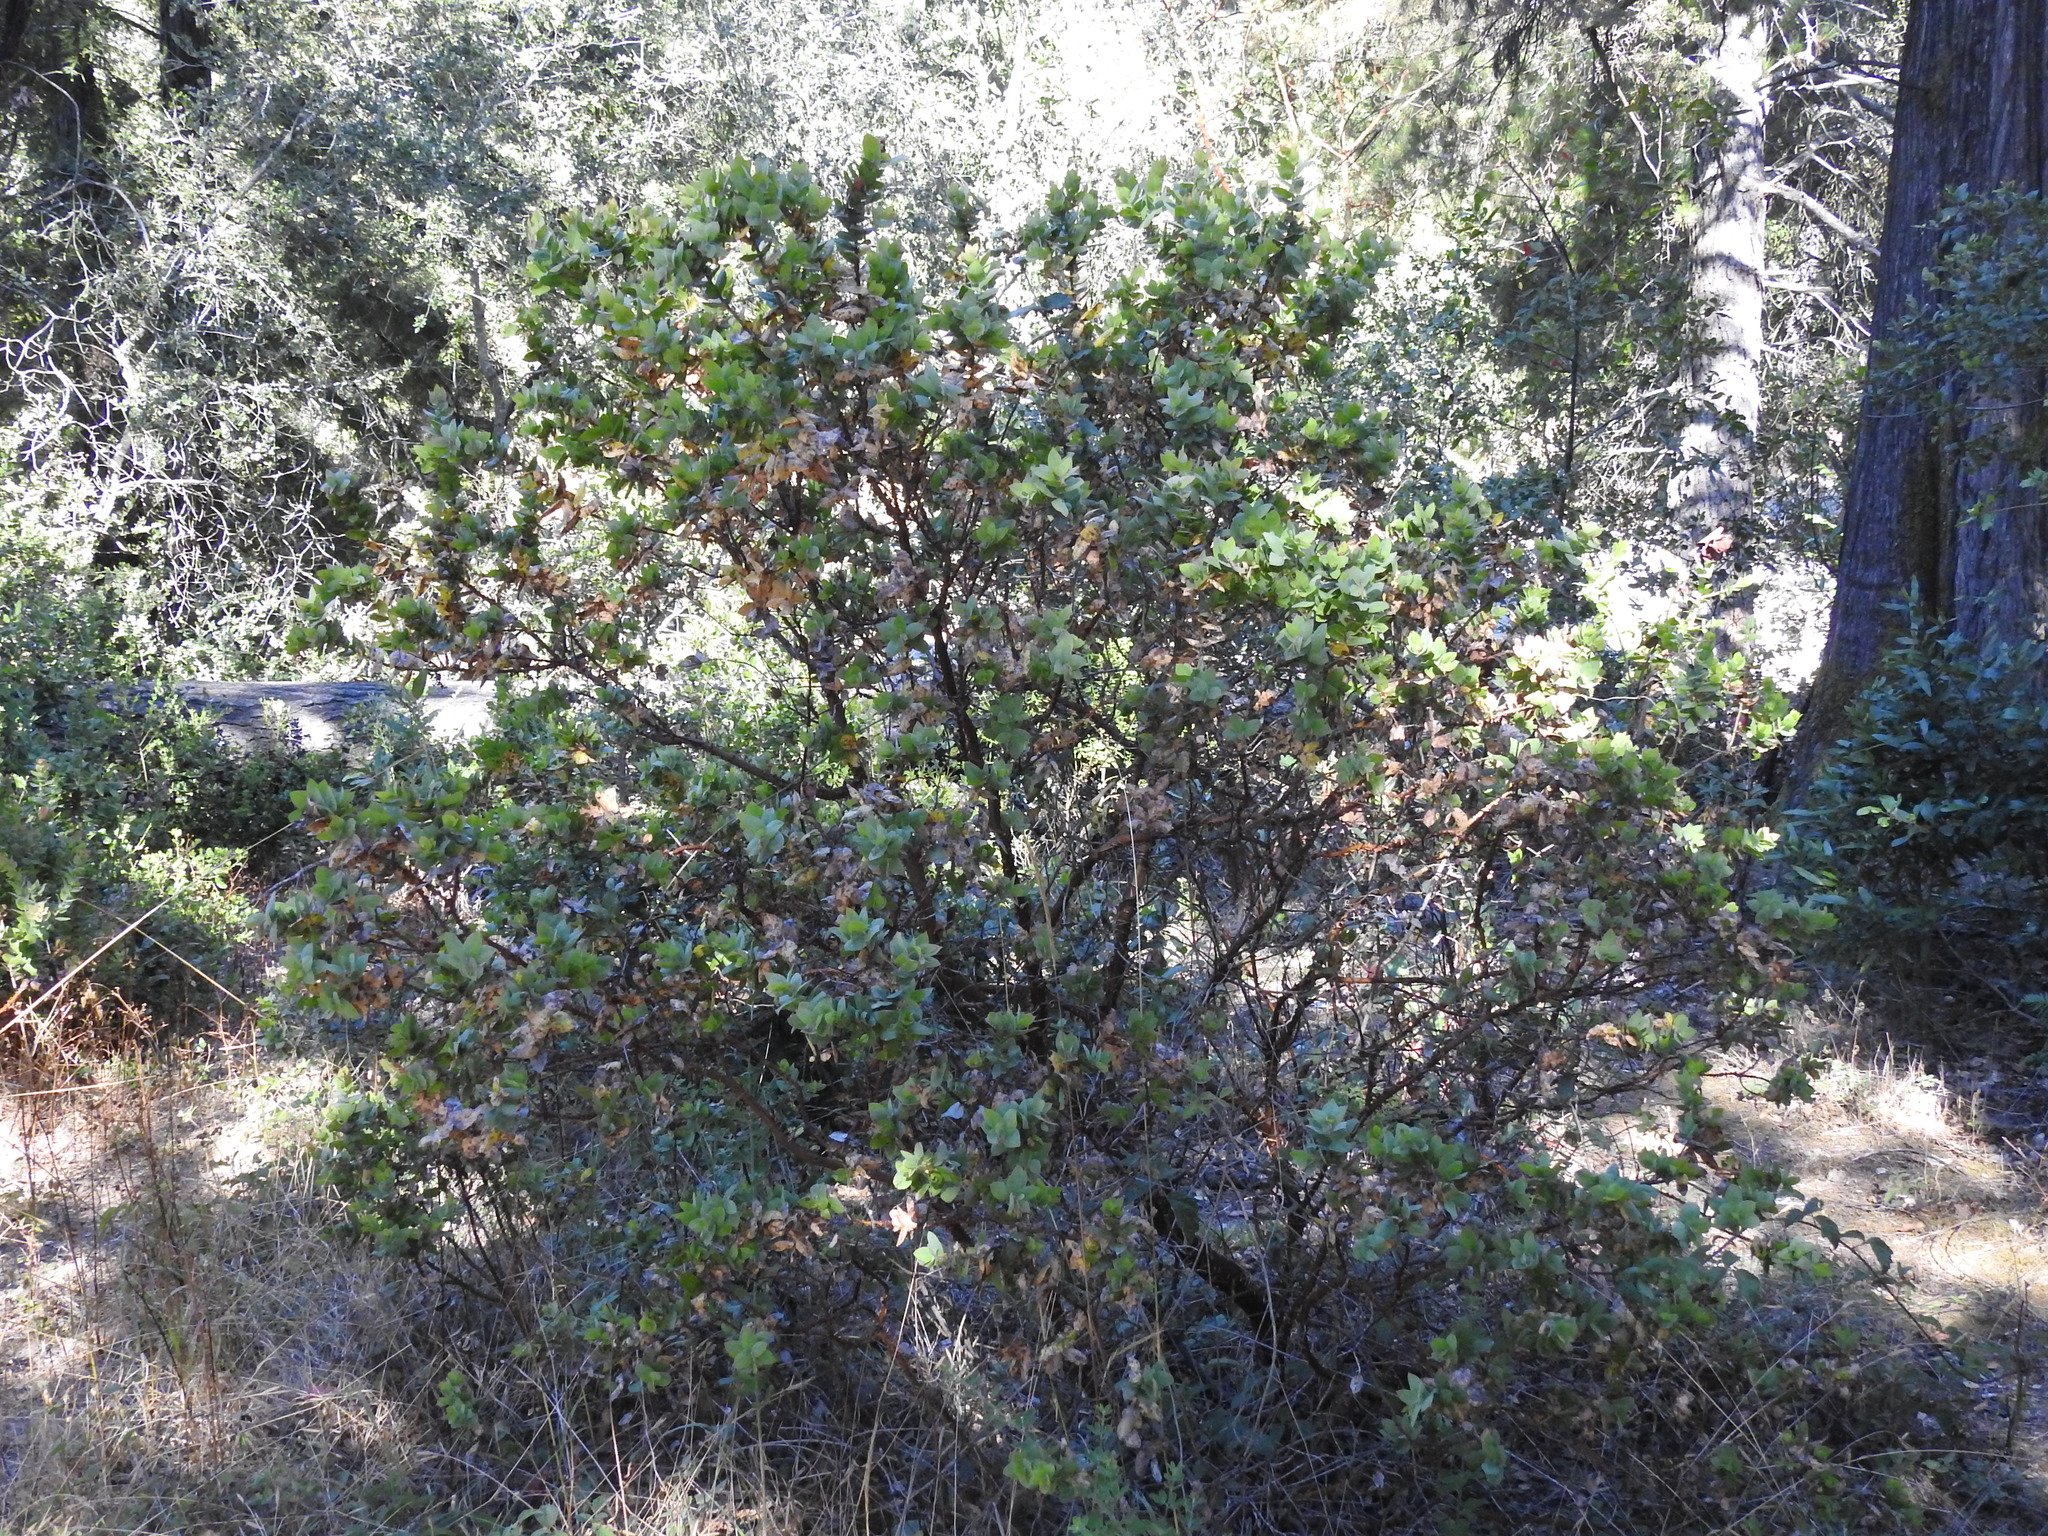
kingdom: Plantae
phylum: Tracheophyta
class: Magnoliopsida
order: Ericales
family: Ericaceae
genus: Arctostaphylos
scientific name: Arctostaphylos pallida
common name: Pallid manzanita
